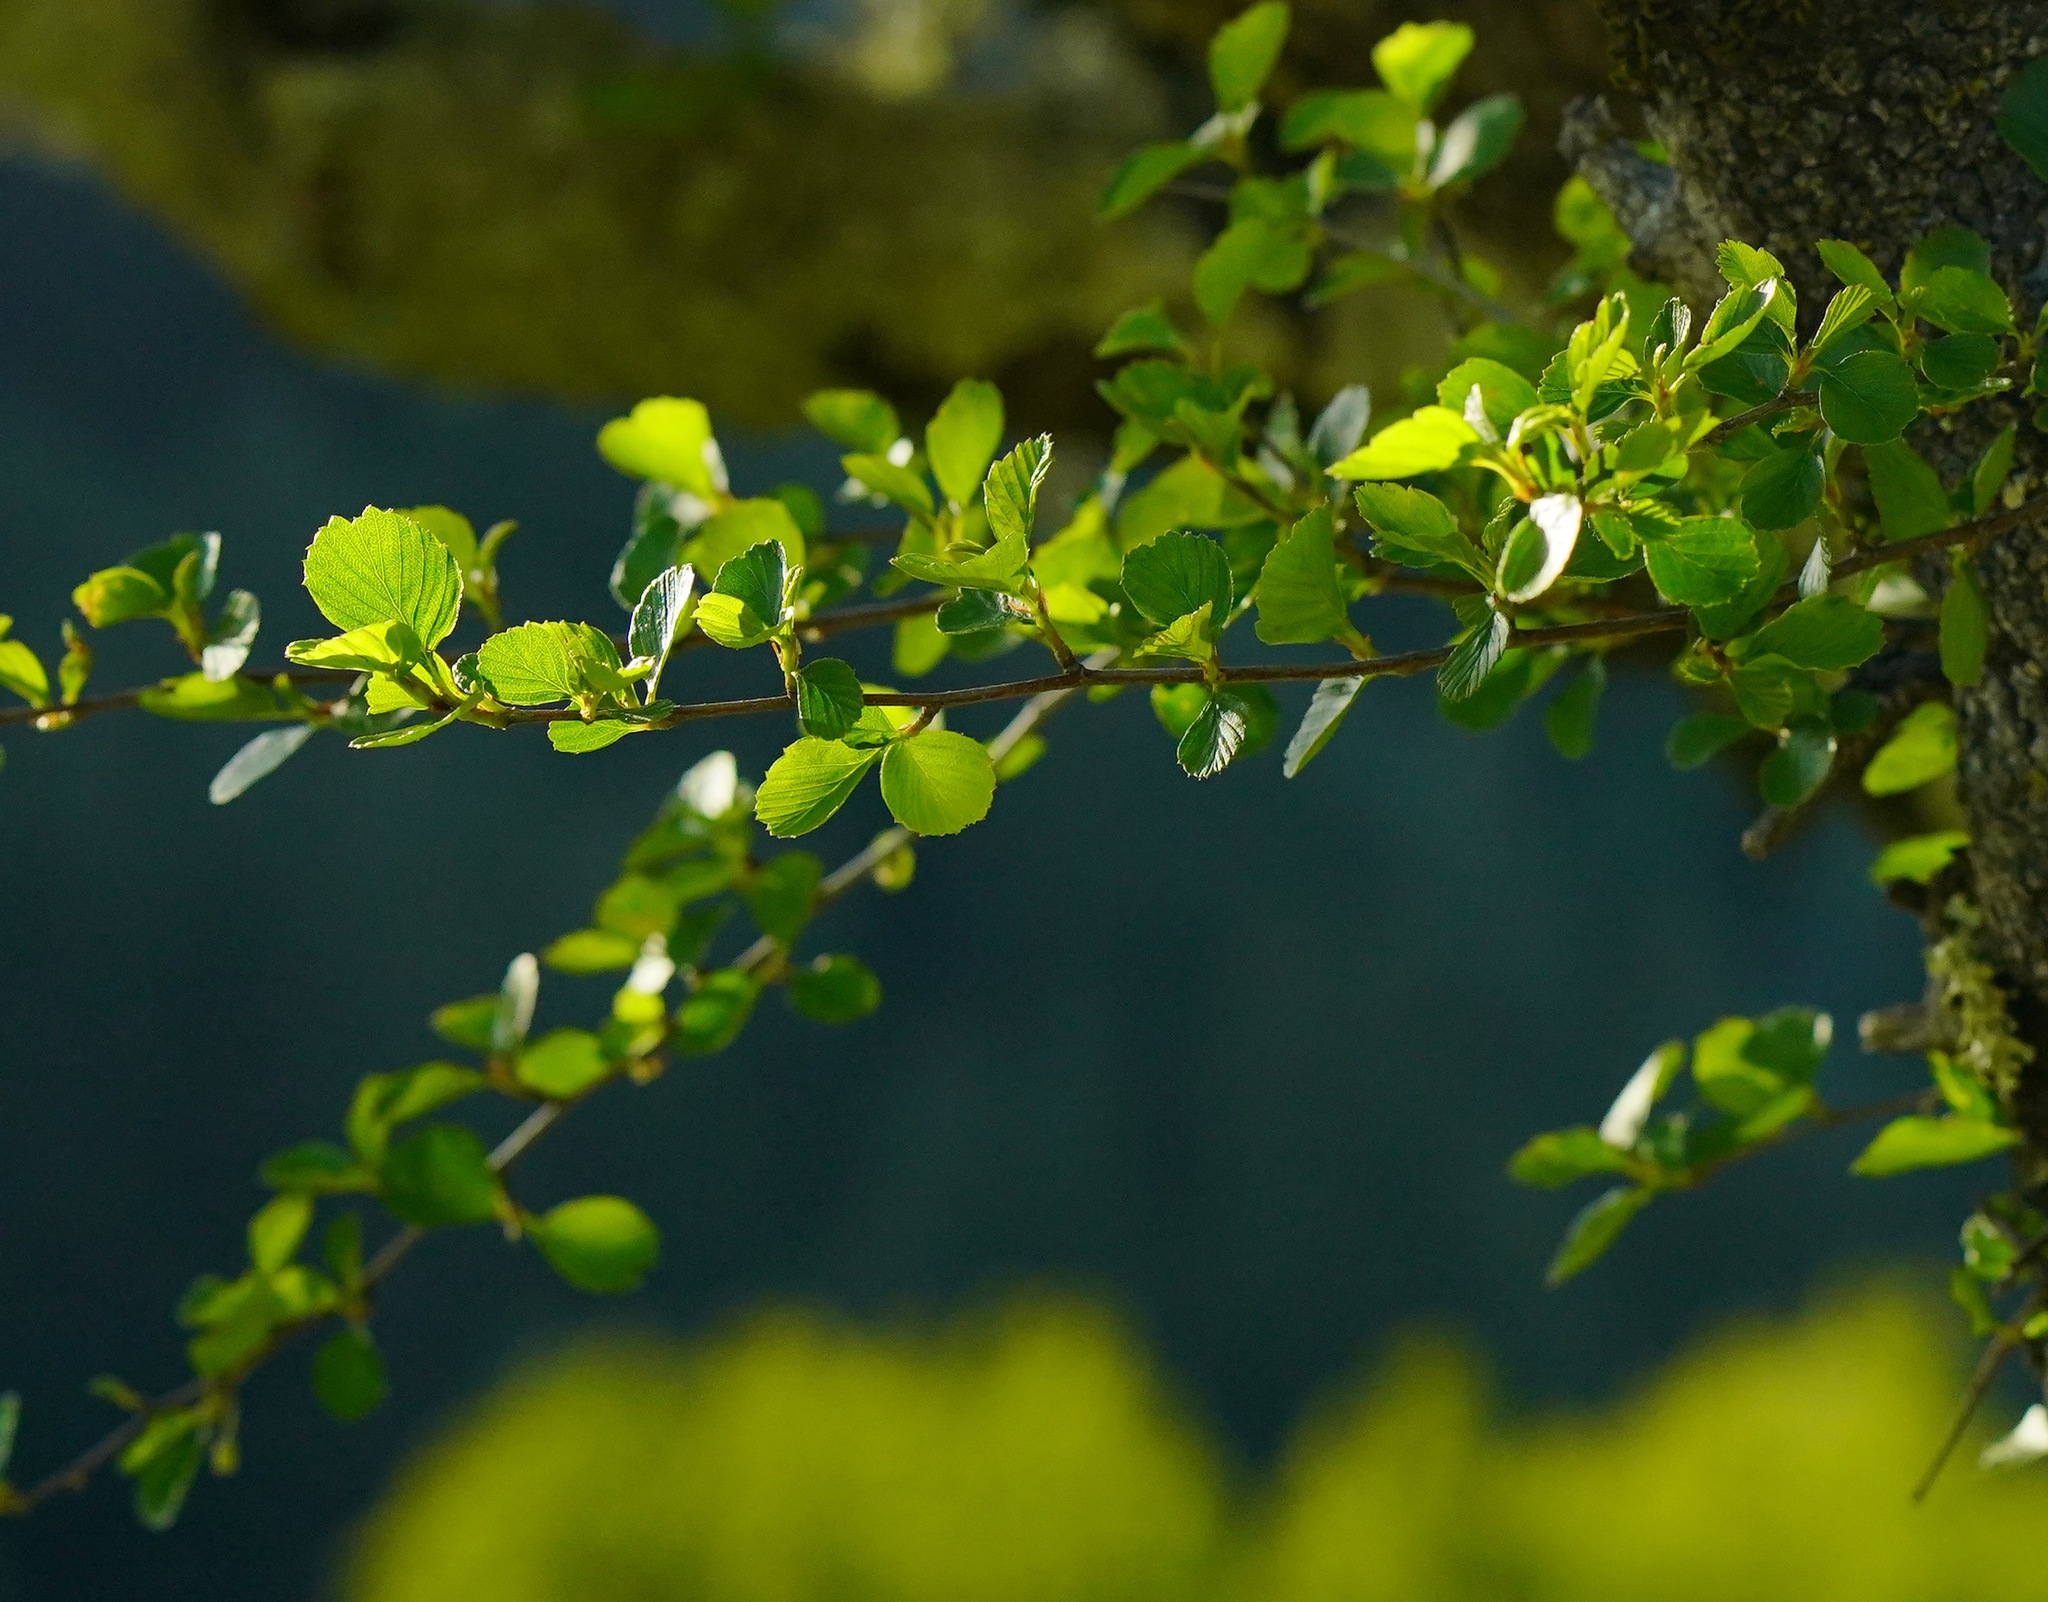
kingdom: Plantae
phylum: Tracheophyta
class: Magnoliopsida
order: Rosales
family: Rosaceae
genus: Cercocarpus
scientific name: Cercocarpus betuloides
